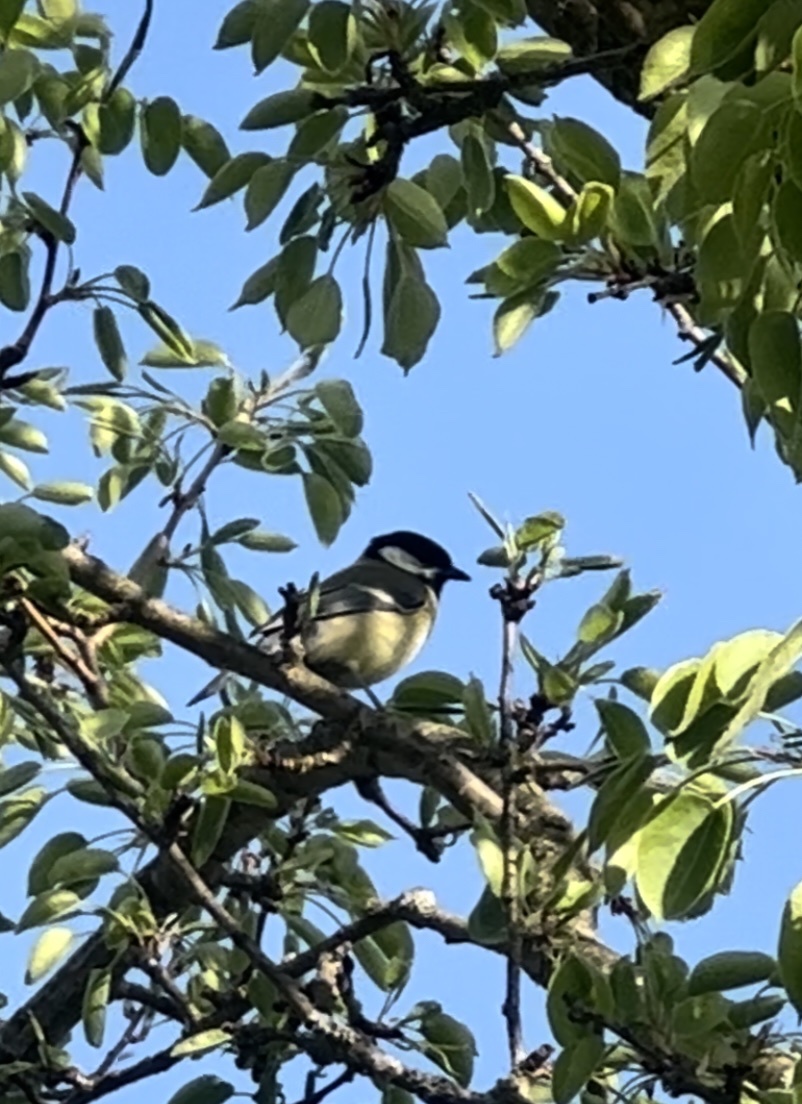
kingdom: Animalia
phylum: Chordata
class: Aves
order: Passeriformes
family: Paridae
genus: Parus
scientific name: Parus major
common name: Great tit
